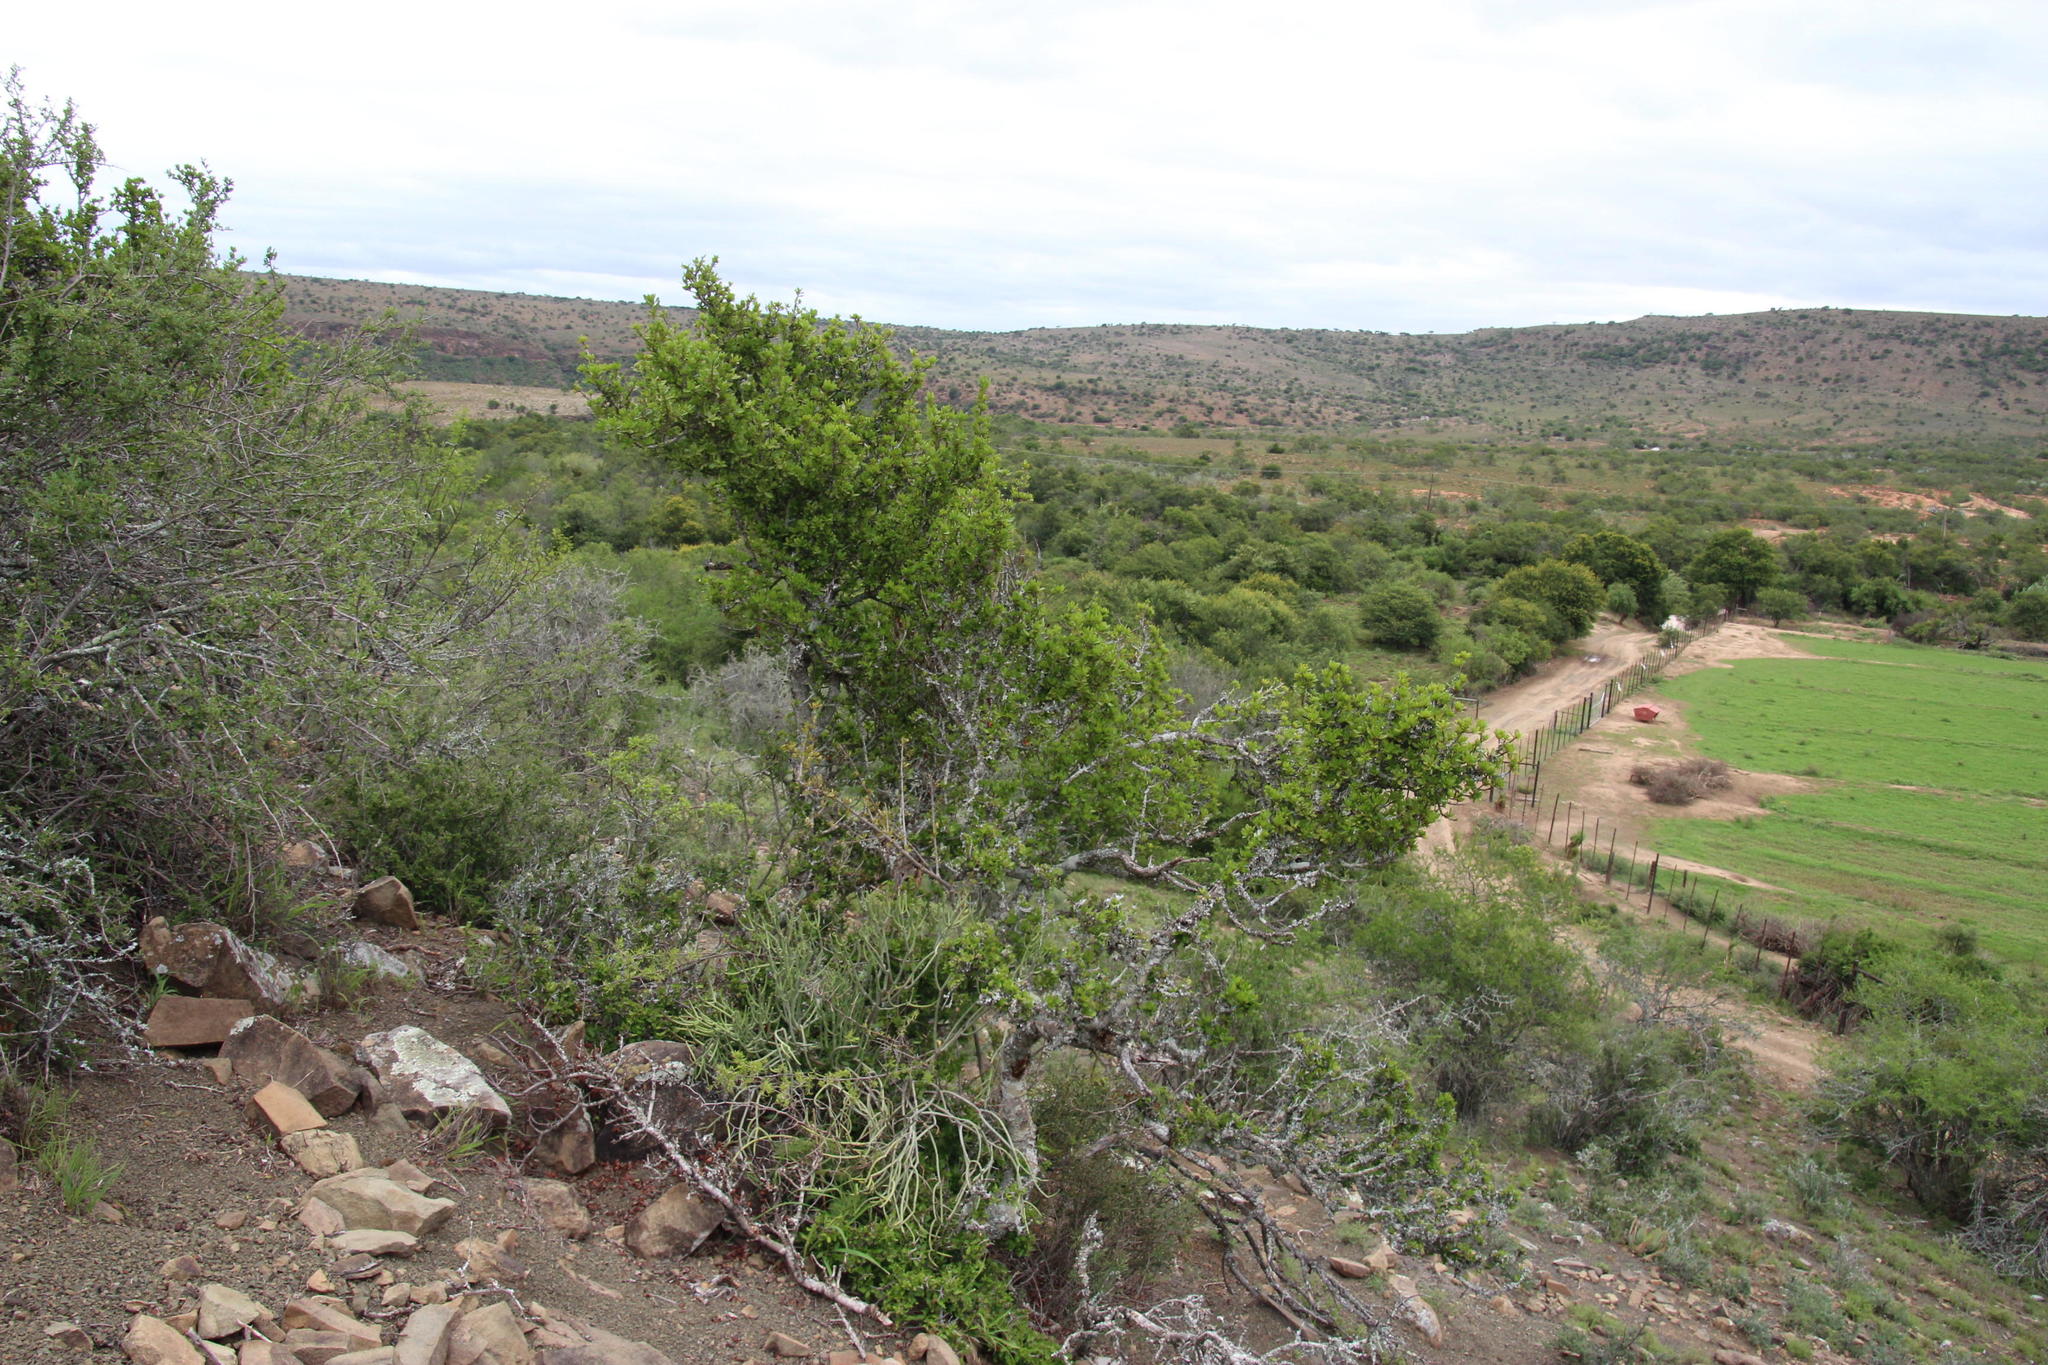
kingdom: Plantae
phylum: Tracheophyta
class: Magnoliopsida
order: Sapindales
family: Sapindaceae
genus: Pappea
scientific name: Pappea capensis
